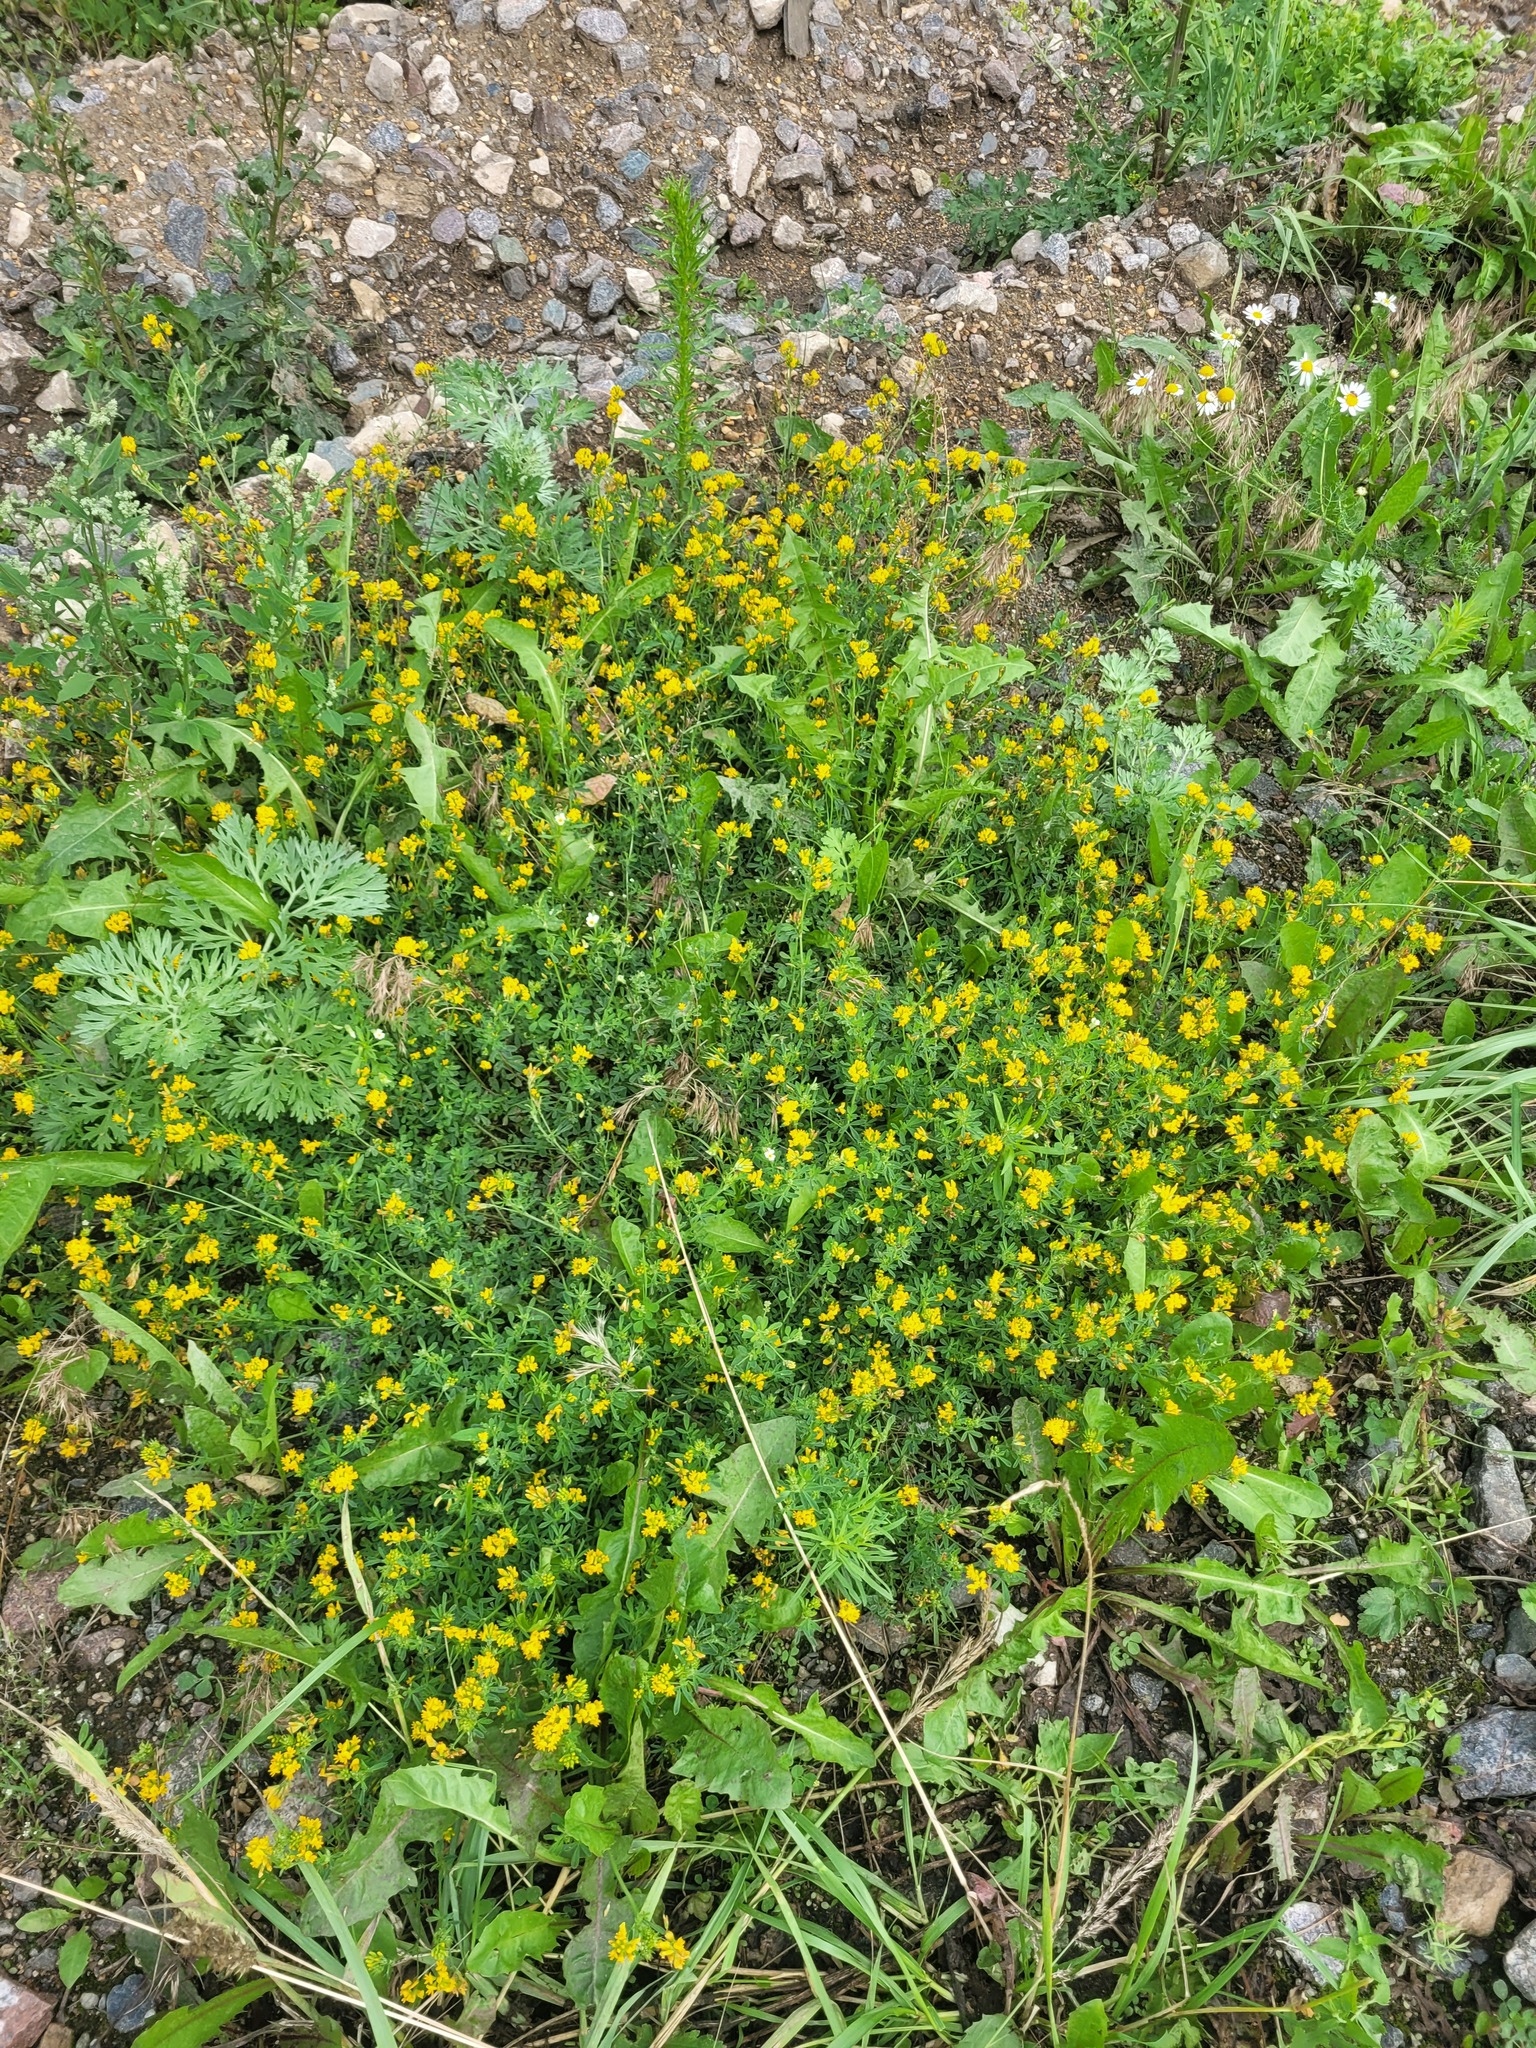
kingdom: Plantae
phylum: Tracheophyta
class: Magnoliopsida
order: Fabales
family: Fabaceae
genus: Medicago
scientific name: Medicago falcata
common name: Sickle medick
